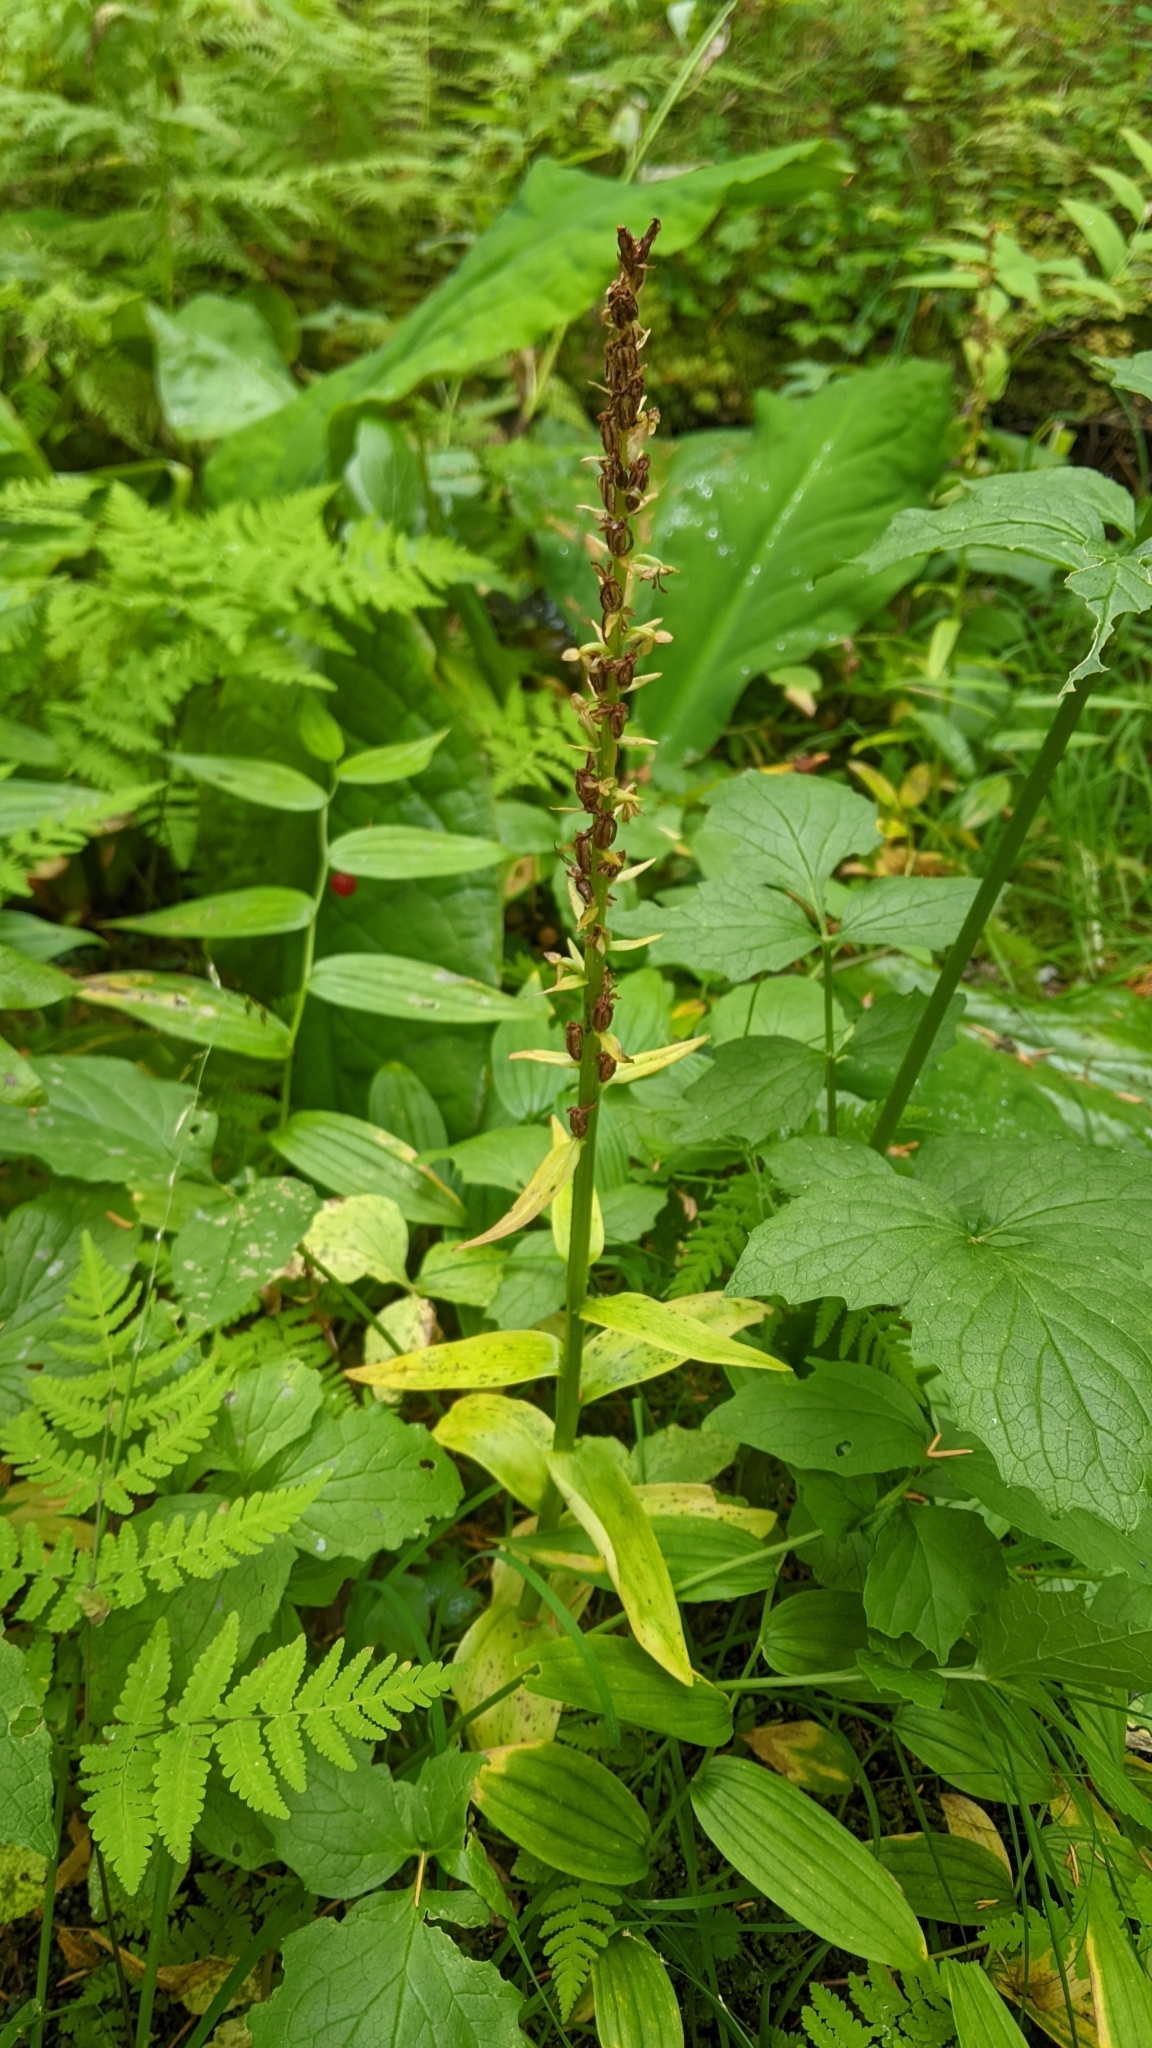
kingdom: Plantae
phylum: Tracheophyta
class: Liliopsida
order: Asparagales
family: Orchidaceae
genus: Platanthera
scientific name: Platanthera stricta
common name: Slender bog orchid
